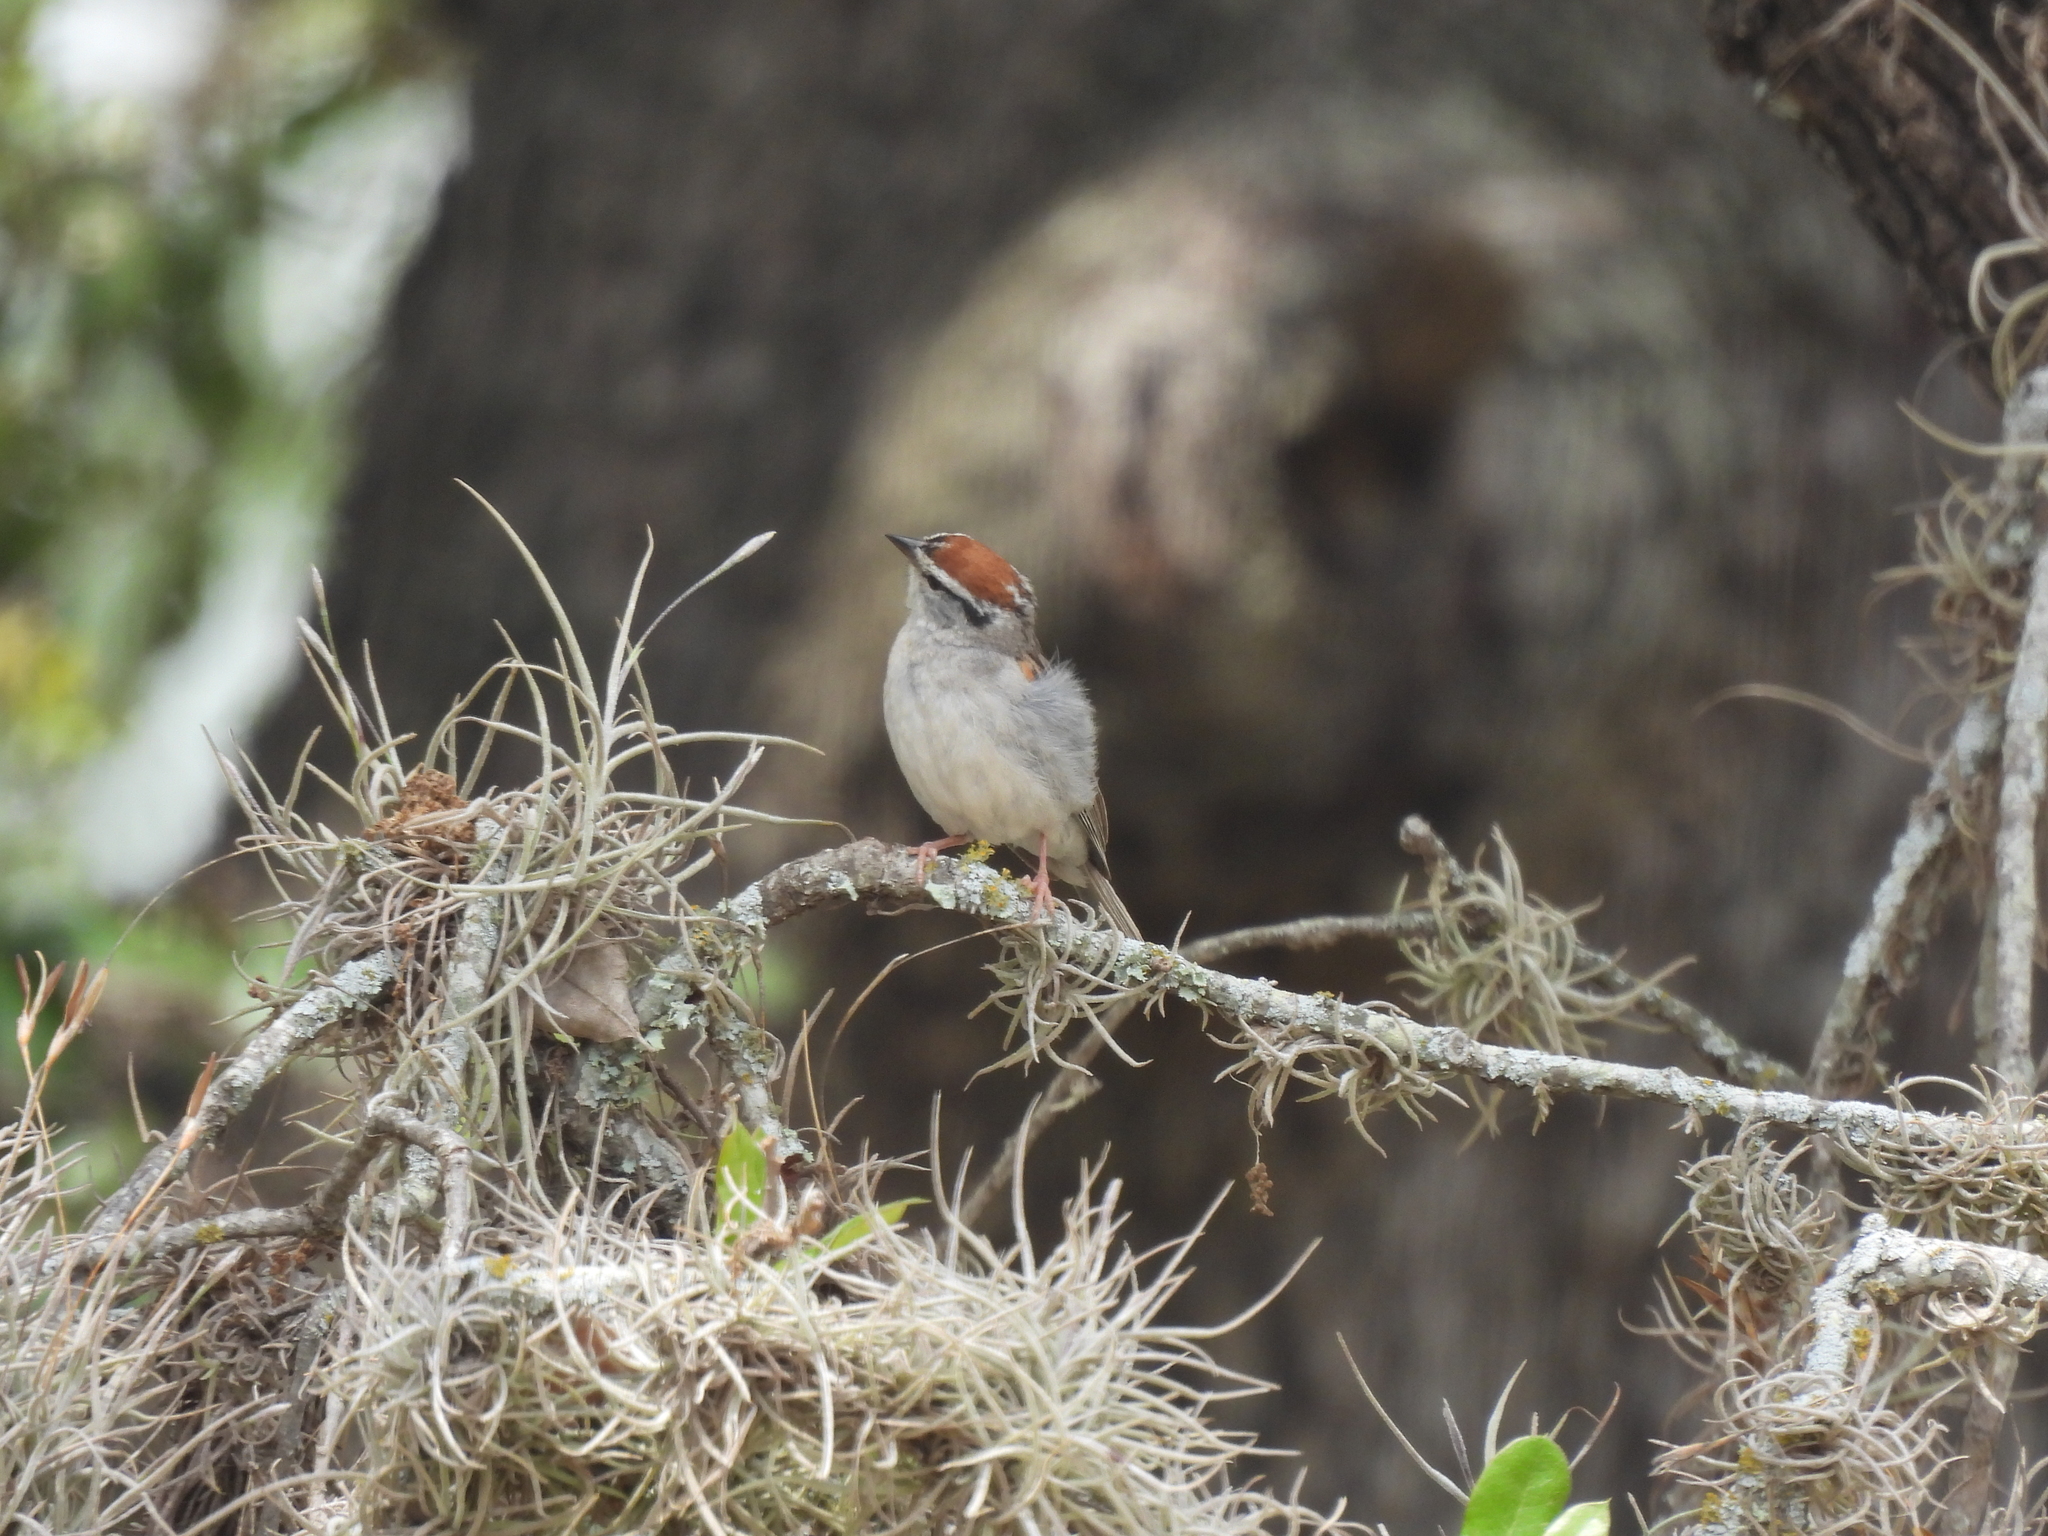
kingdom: Animalia
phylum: Chordata
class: Aves
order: Passeriformes
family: Passerellidae
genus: Spizella
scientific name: Spizella passerina
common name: Chipping sparrow
